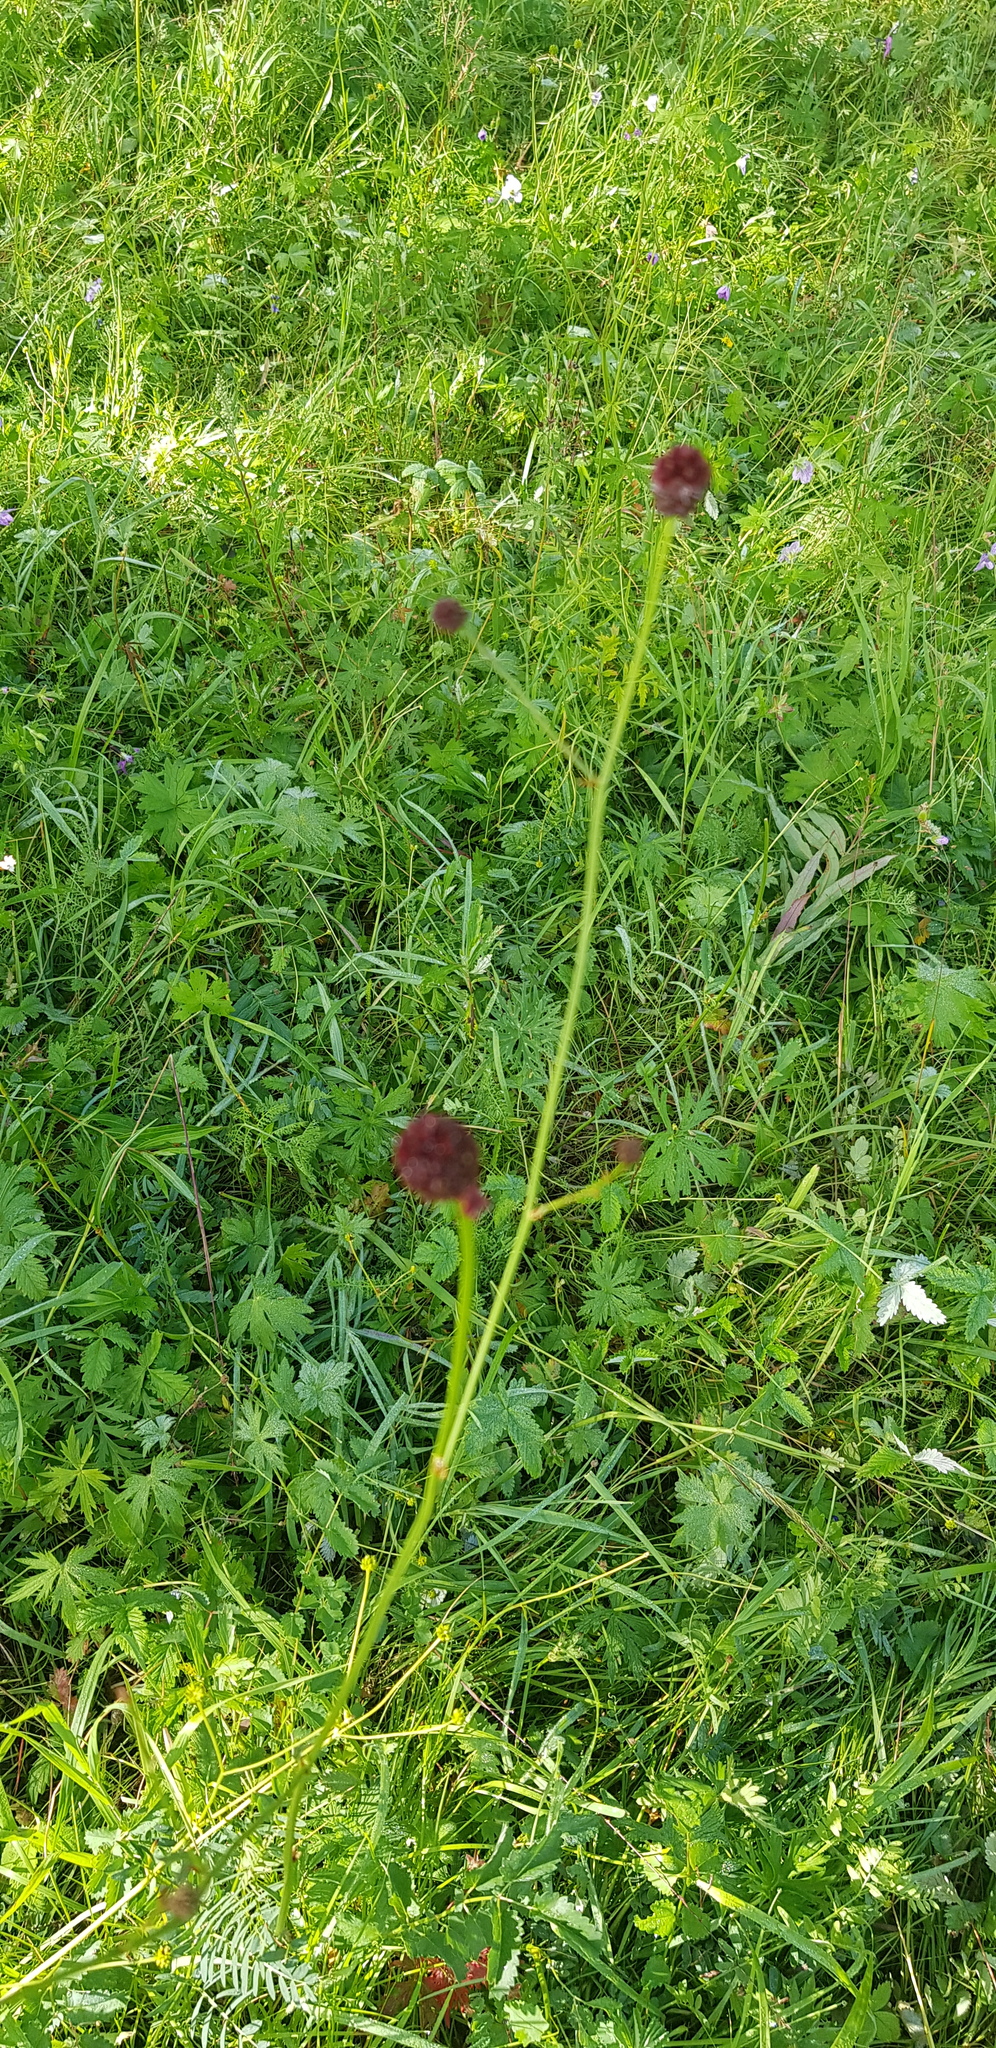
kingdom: Plantae
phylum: Tracheophyta
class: Magnoliopsida
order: Rosales
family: Rosaceae
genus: Sanguisorba
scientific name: Sanguisorba officinalis
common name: Great burnet
